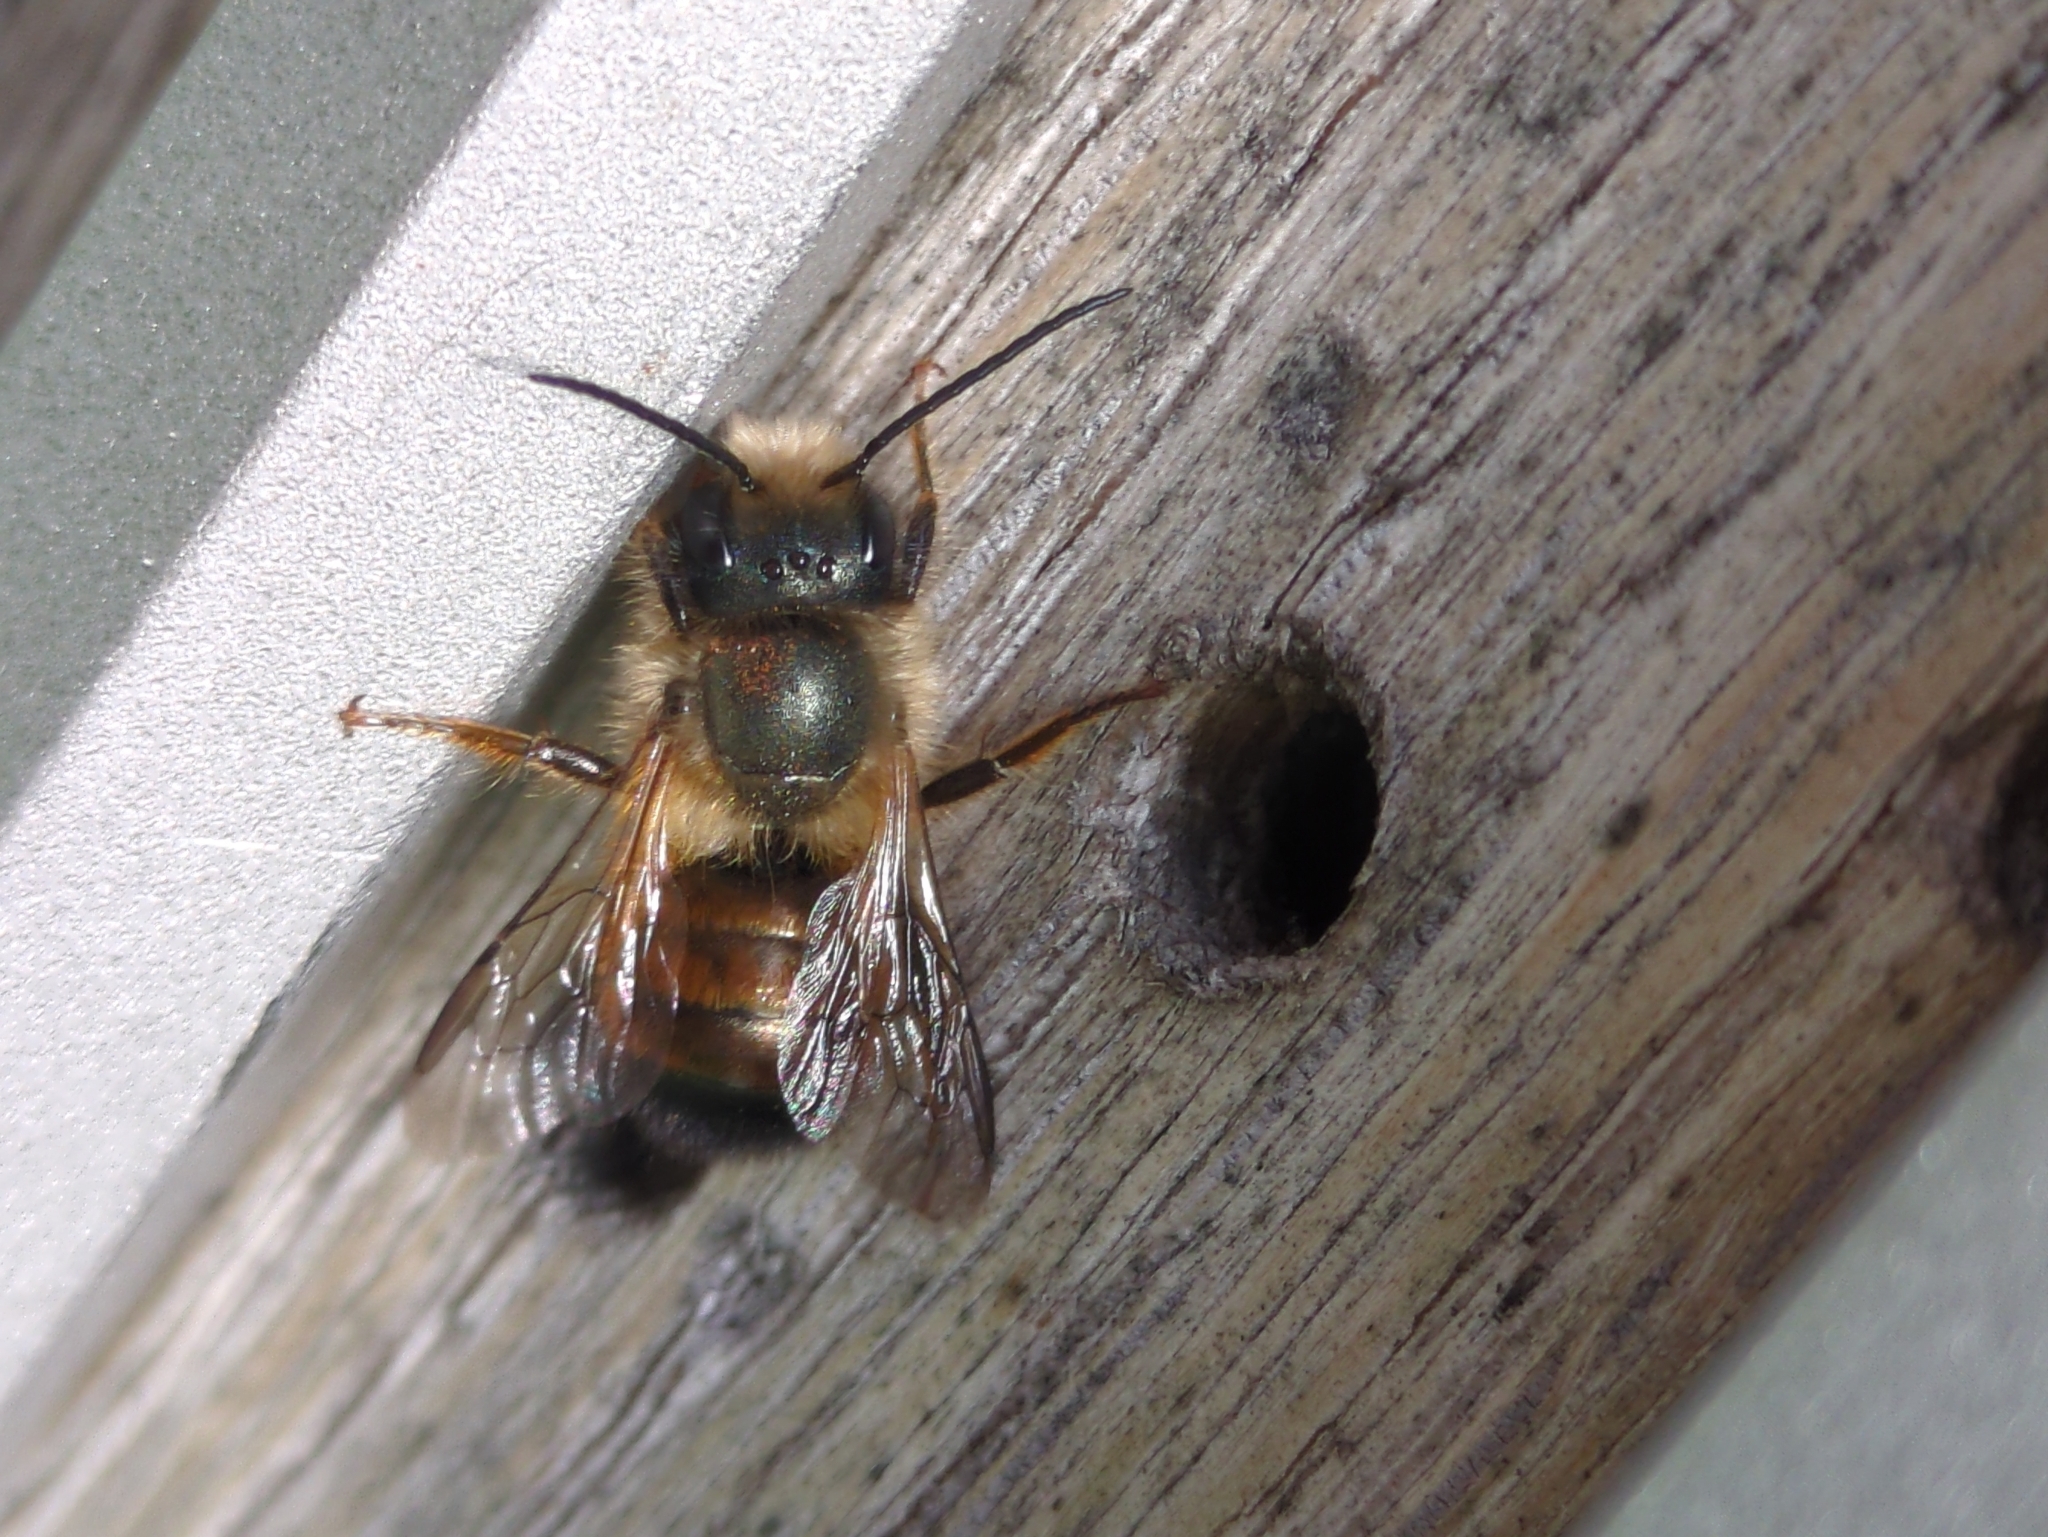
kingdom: Animalia
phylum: Arthropoda
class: Insecta
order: Hymenoptera
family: Megachilidae
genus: Osmia
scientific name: Osmia bicornis
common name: Red mason bee
